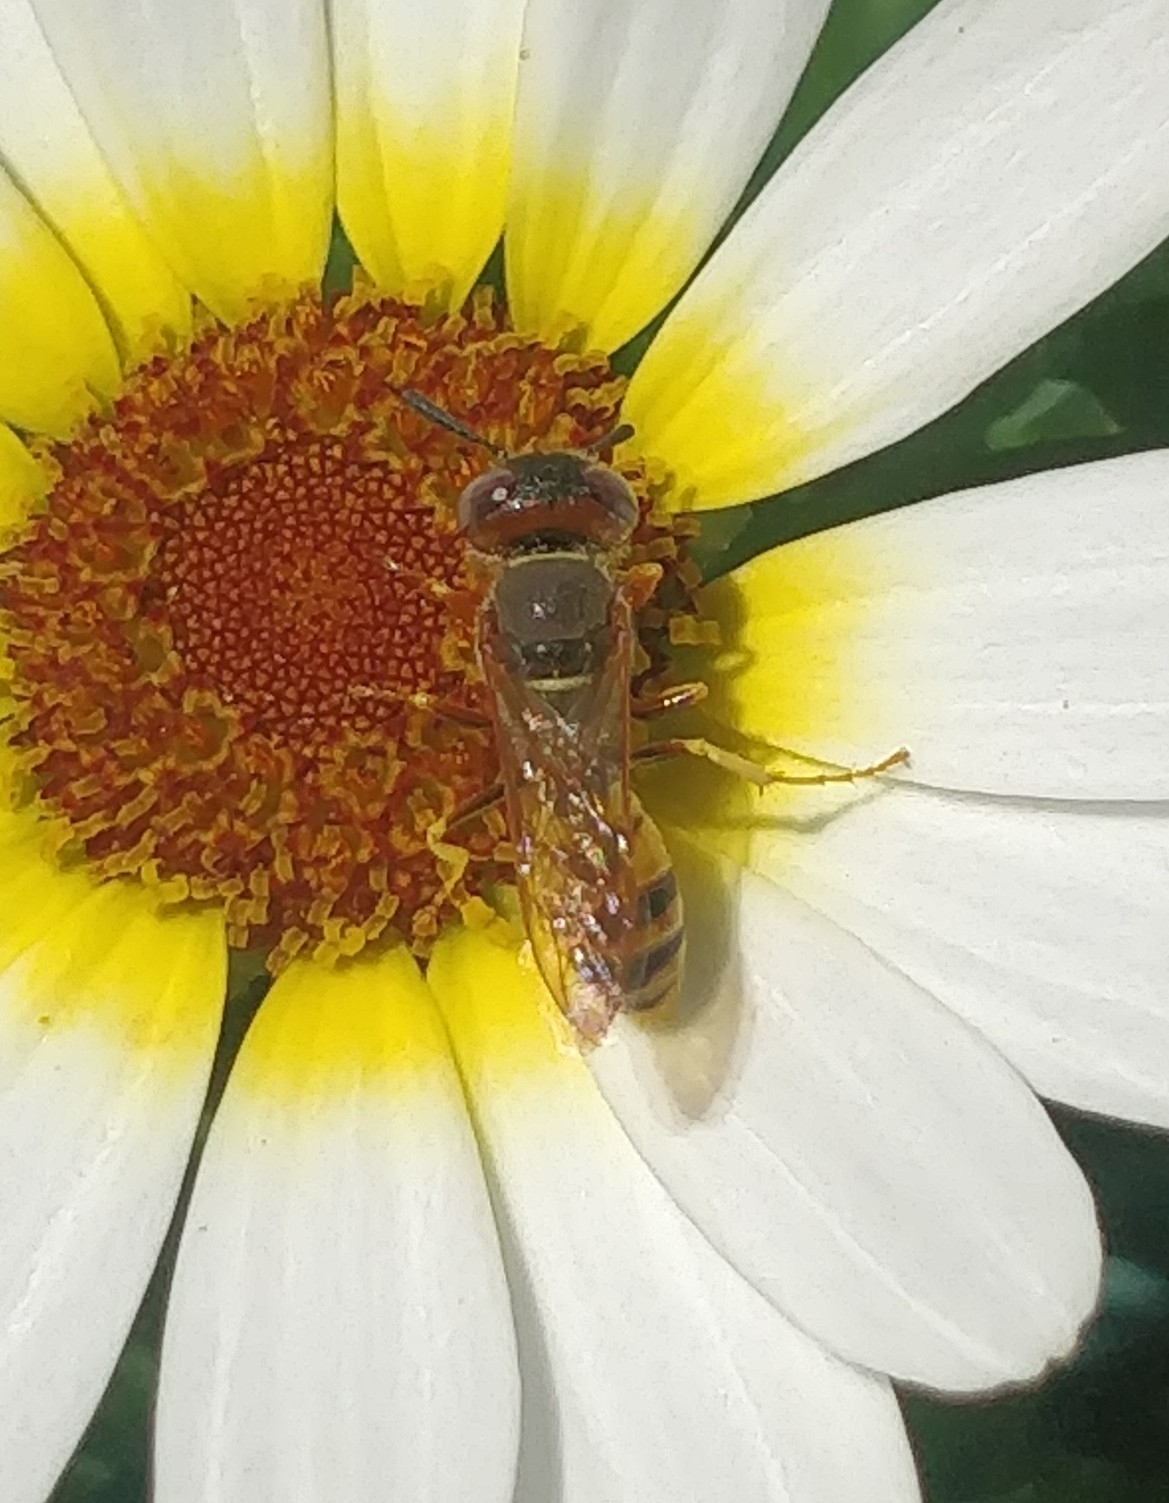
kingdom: Animalia
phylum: Arthropoda
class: Insecta
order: Hymenoptera
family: Crabronidae
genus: Philanthus
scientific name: Philanthus triangulum
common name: Bee wolf
